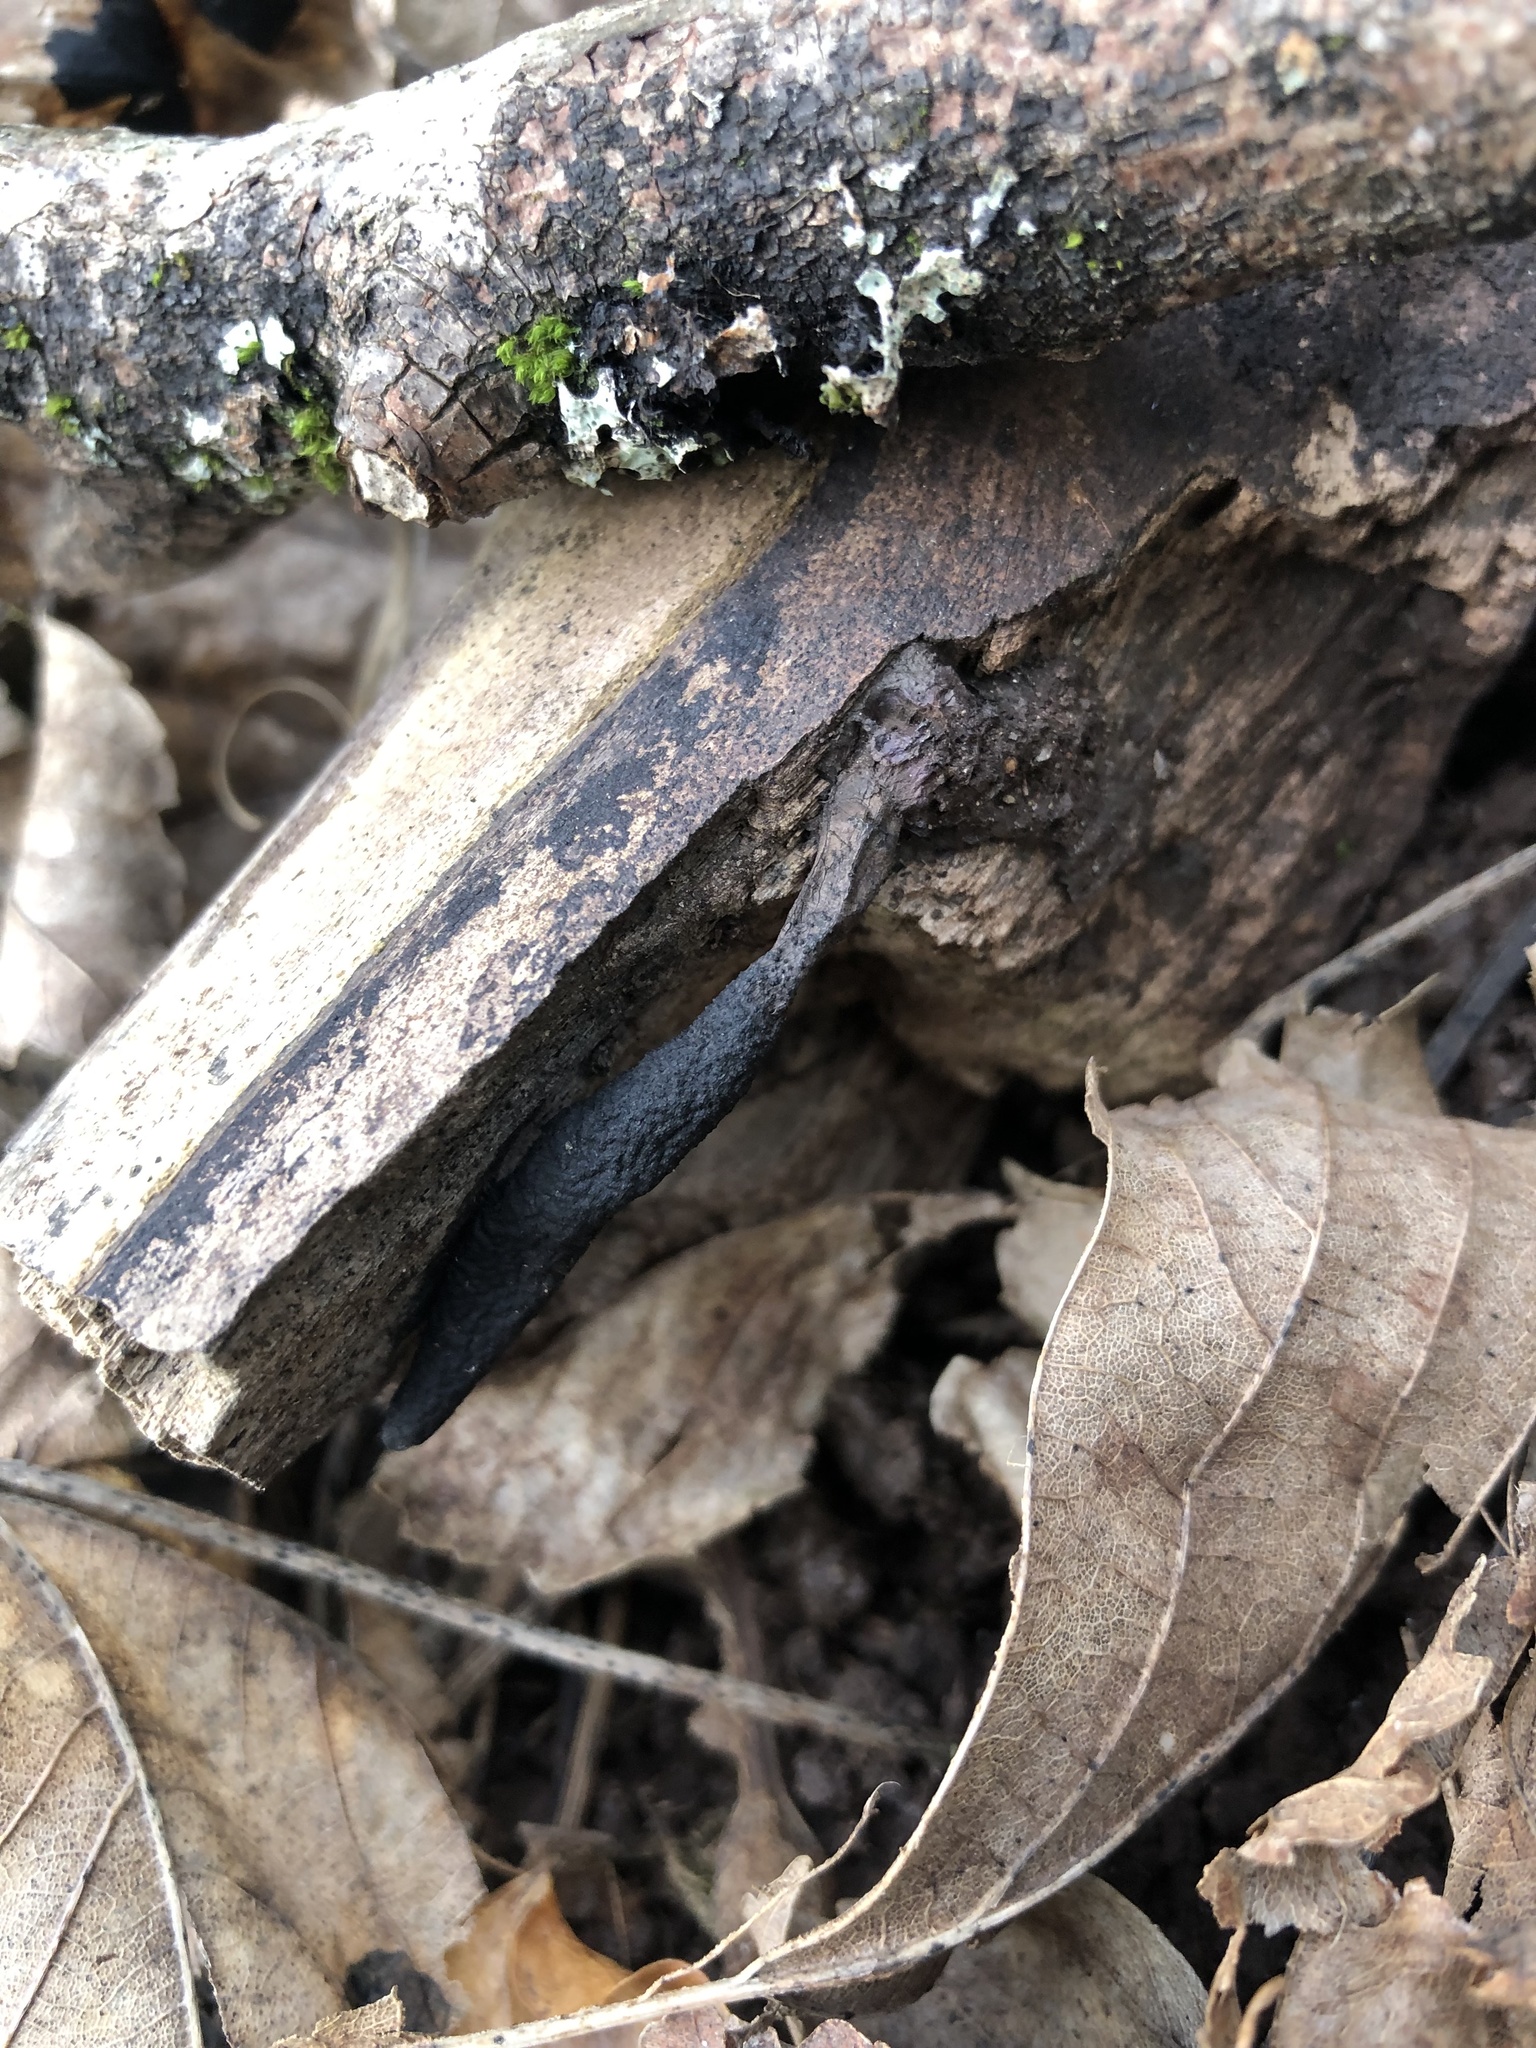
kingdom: Fungi
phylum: Ascomycota
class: Sordariomycetes
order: Xylariales
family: Xylariaceae
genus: Xylaria
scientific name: Xylaria longipes
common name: Dead moll's fingers
